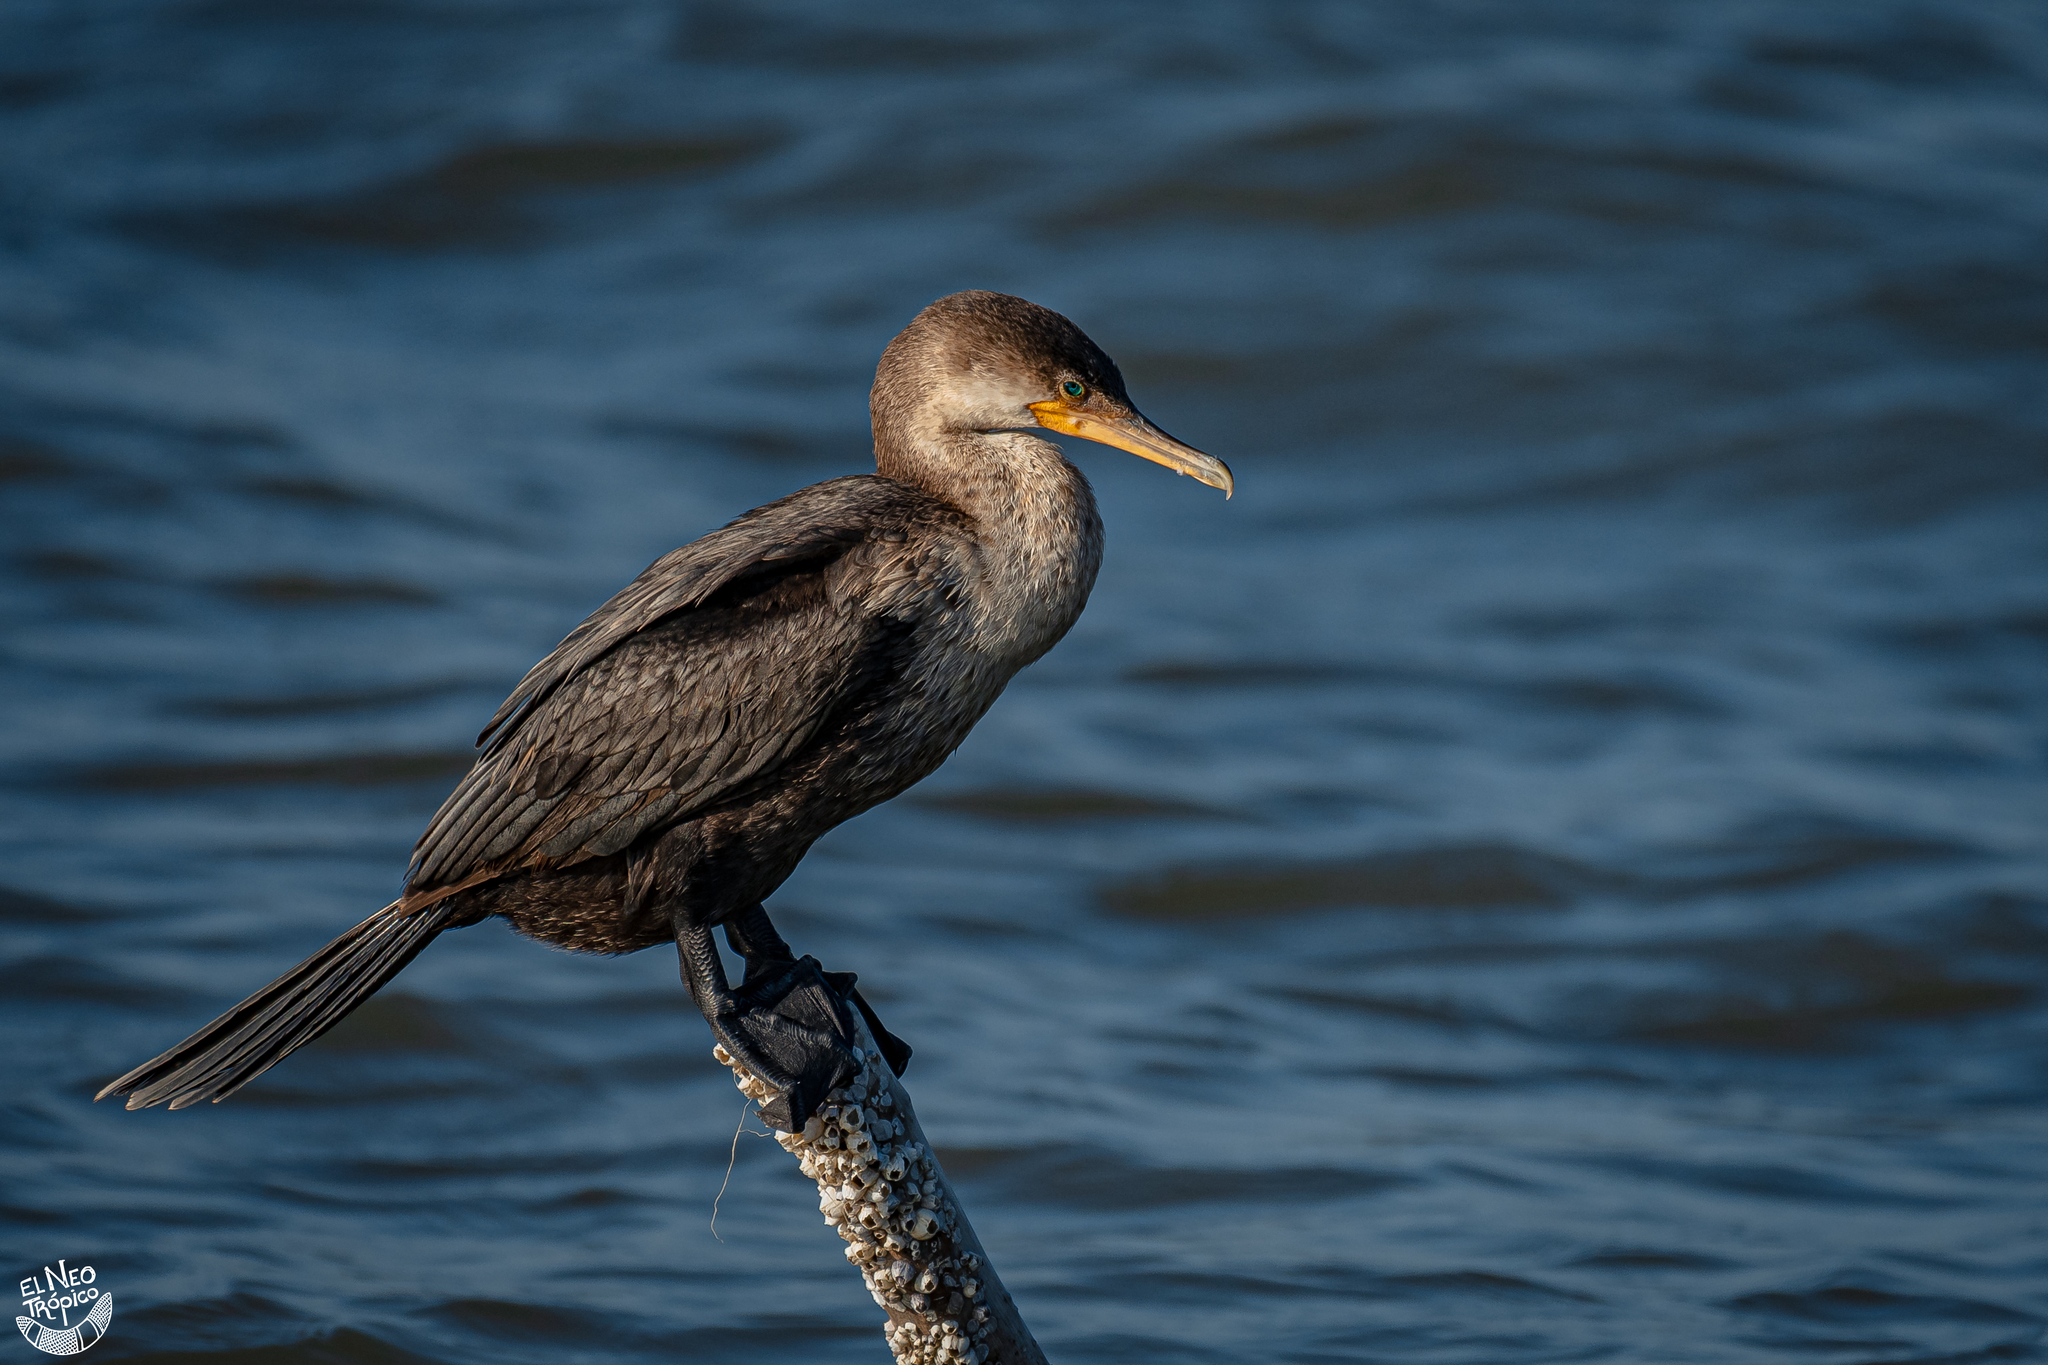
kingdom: Animalia
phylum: Chordata
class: Aves
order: Suliformes
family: Phalacrocoracidae
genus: Phalacrocorax
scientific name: Phalacrocorax brasilianus
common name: Neotropic cormorant
